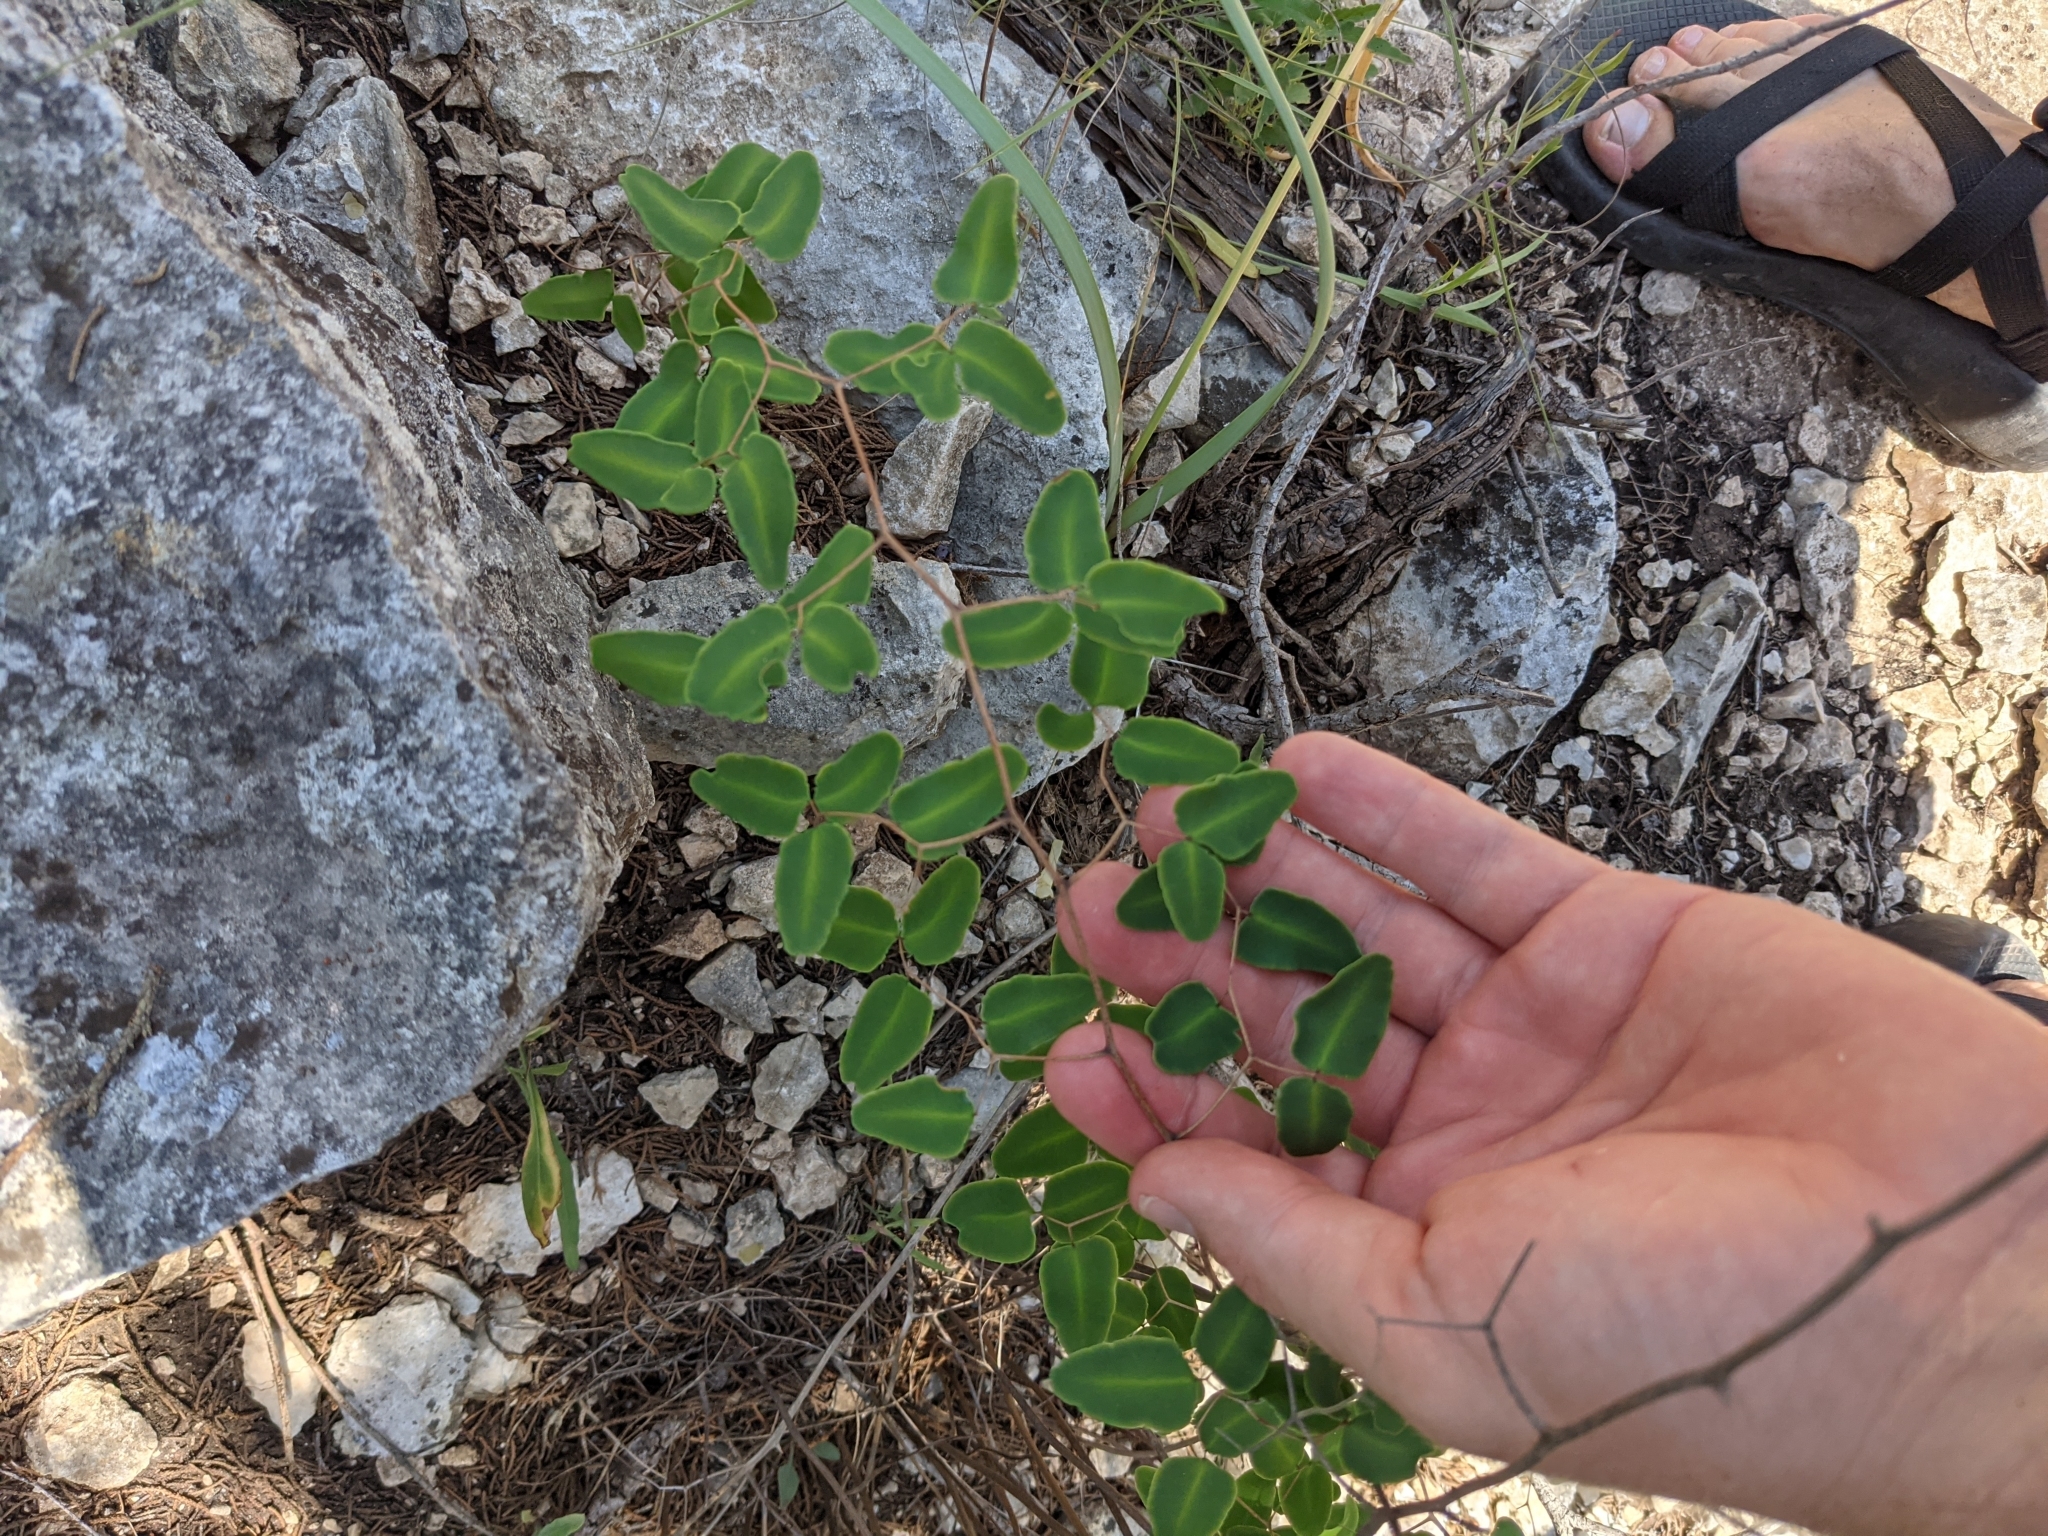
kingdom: Plantae
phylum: Tracheophyta
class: Polypodiopsida
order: Polypodiales
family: Pteridaceae
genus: Pellaea
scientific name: Pellaea ovata
